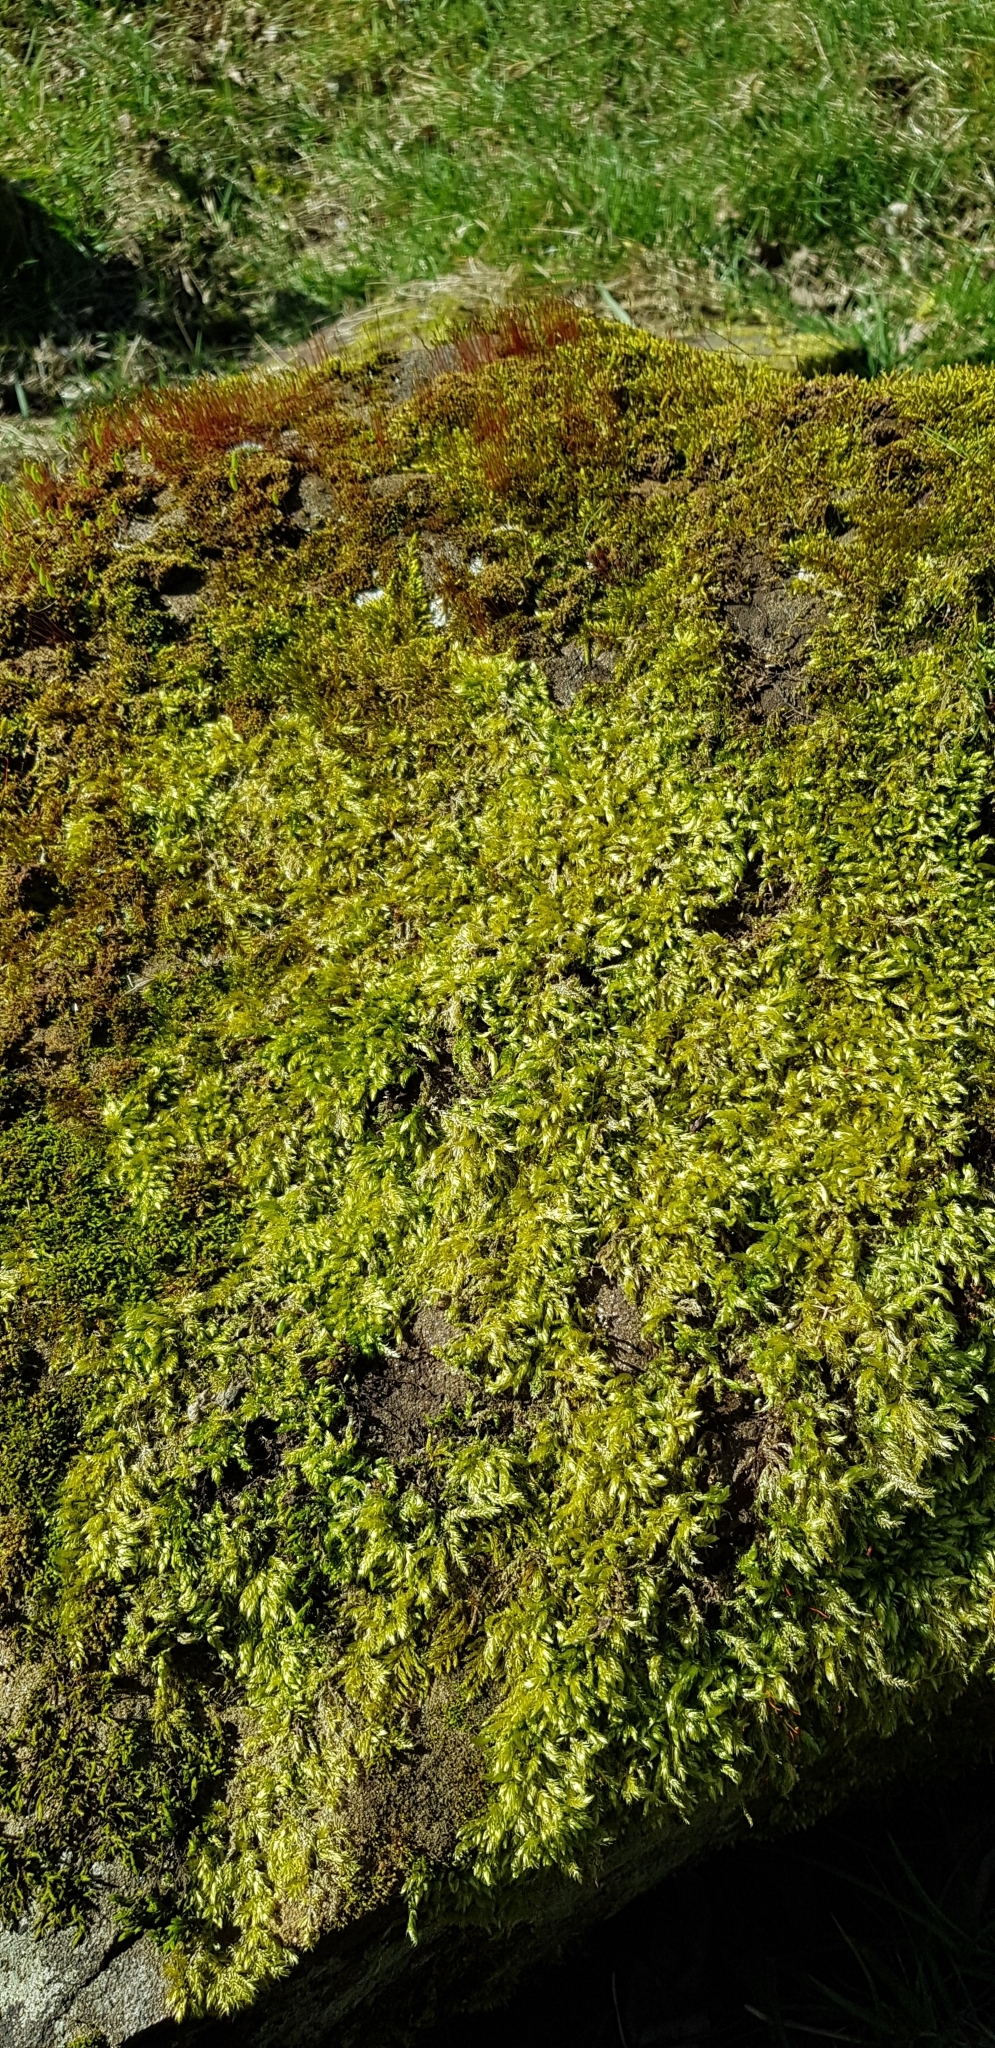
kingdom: Plantae
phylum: Bryophyta
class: Bryopsida
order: Hypnales
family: Brachytheciaceae
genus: Brachythecium
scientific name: Brachythecium rutabulum
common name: Rough-stalked feather-moss
